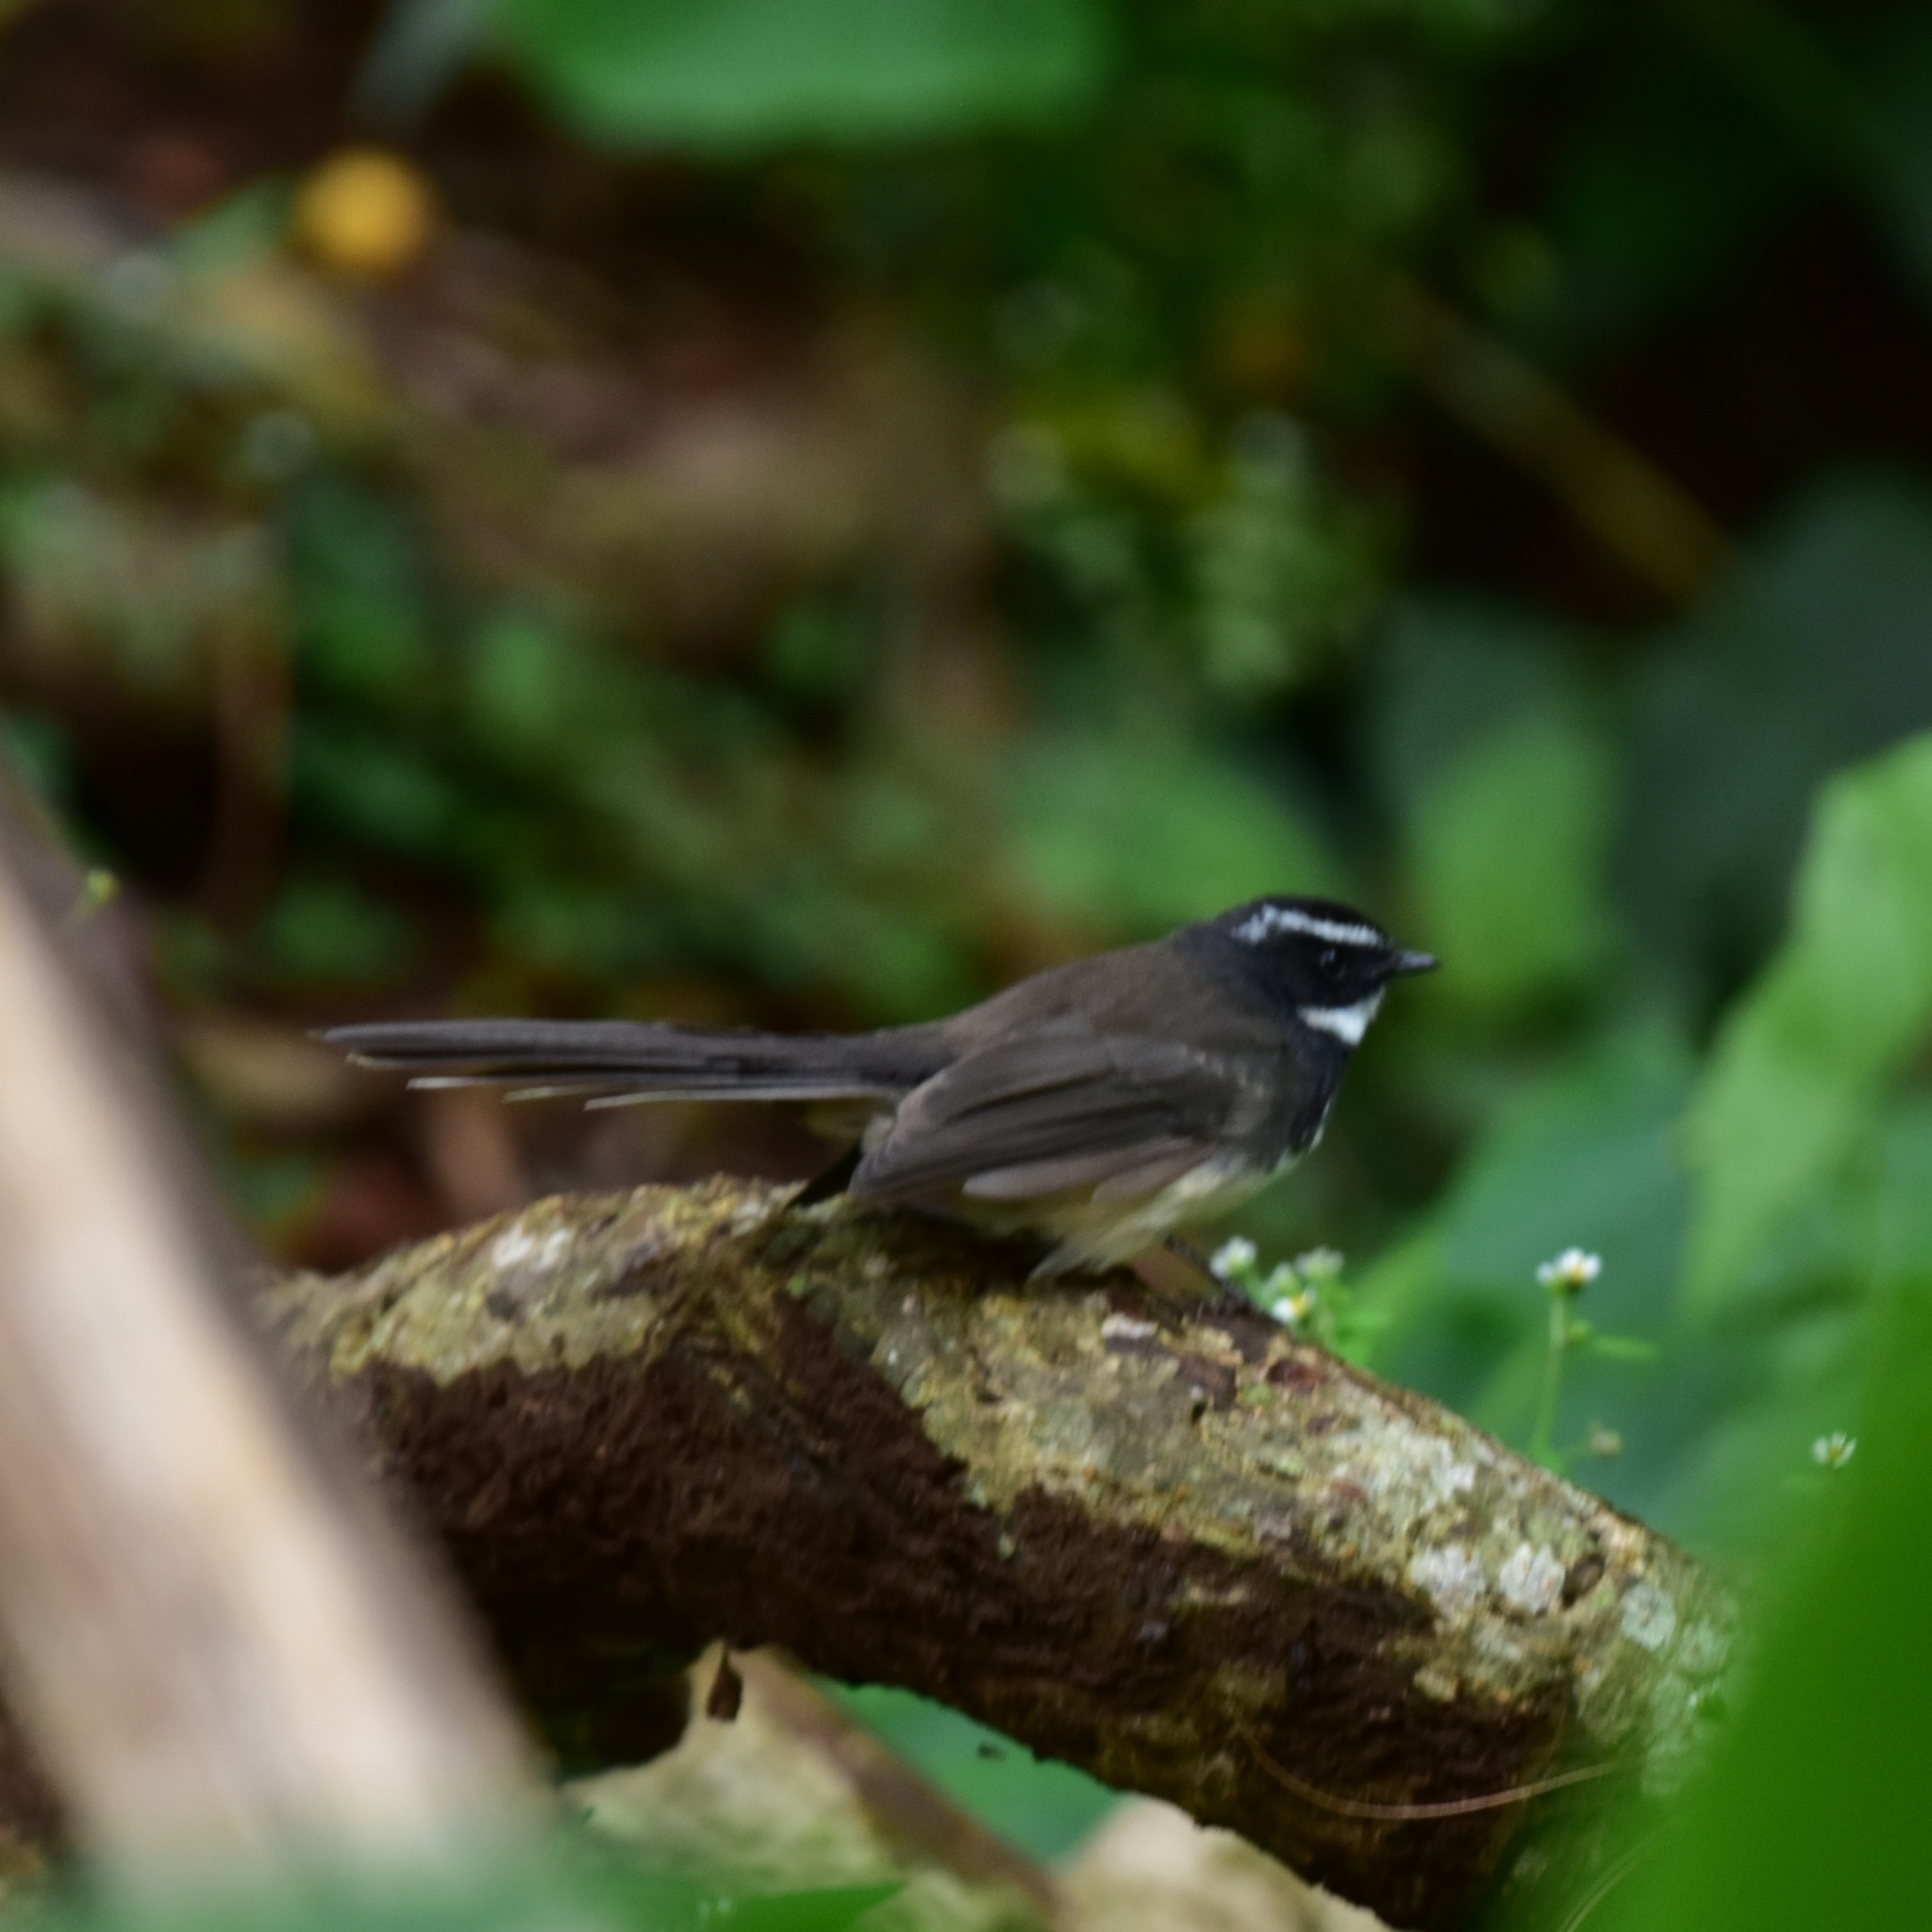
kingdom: Animalia
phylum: Chordata
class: Aves
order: Passeriformes
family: Rhipiduridae
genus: Rhipidura
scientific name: Rhipidura albogularis
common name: White-spotted fantail
